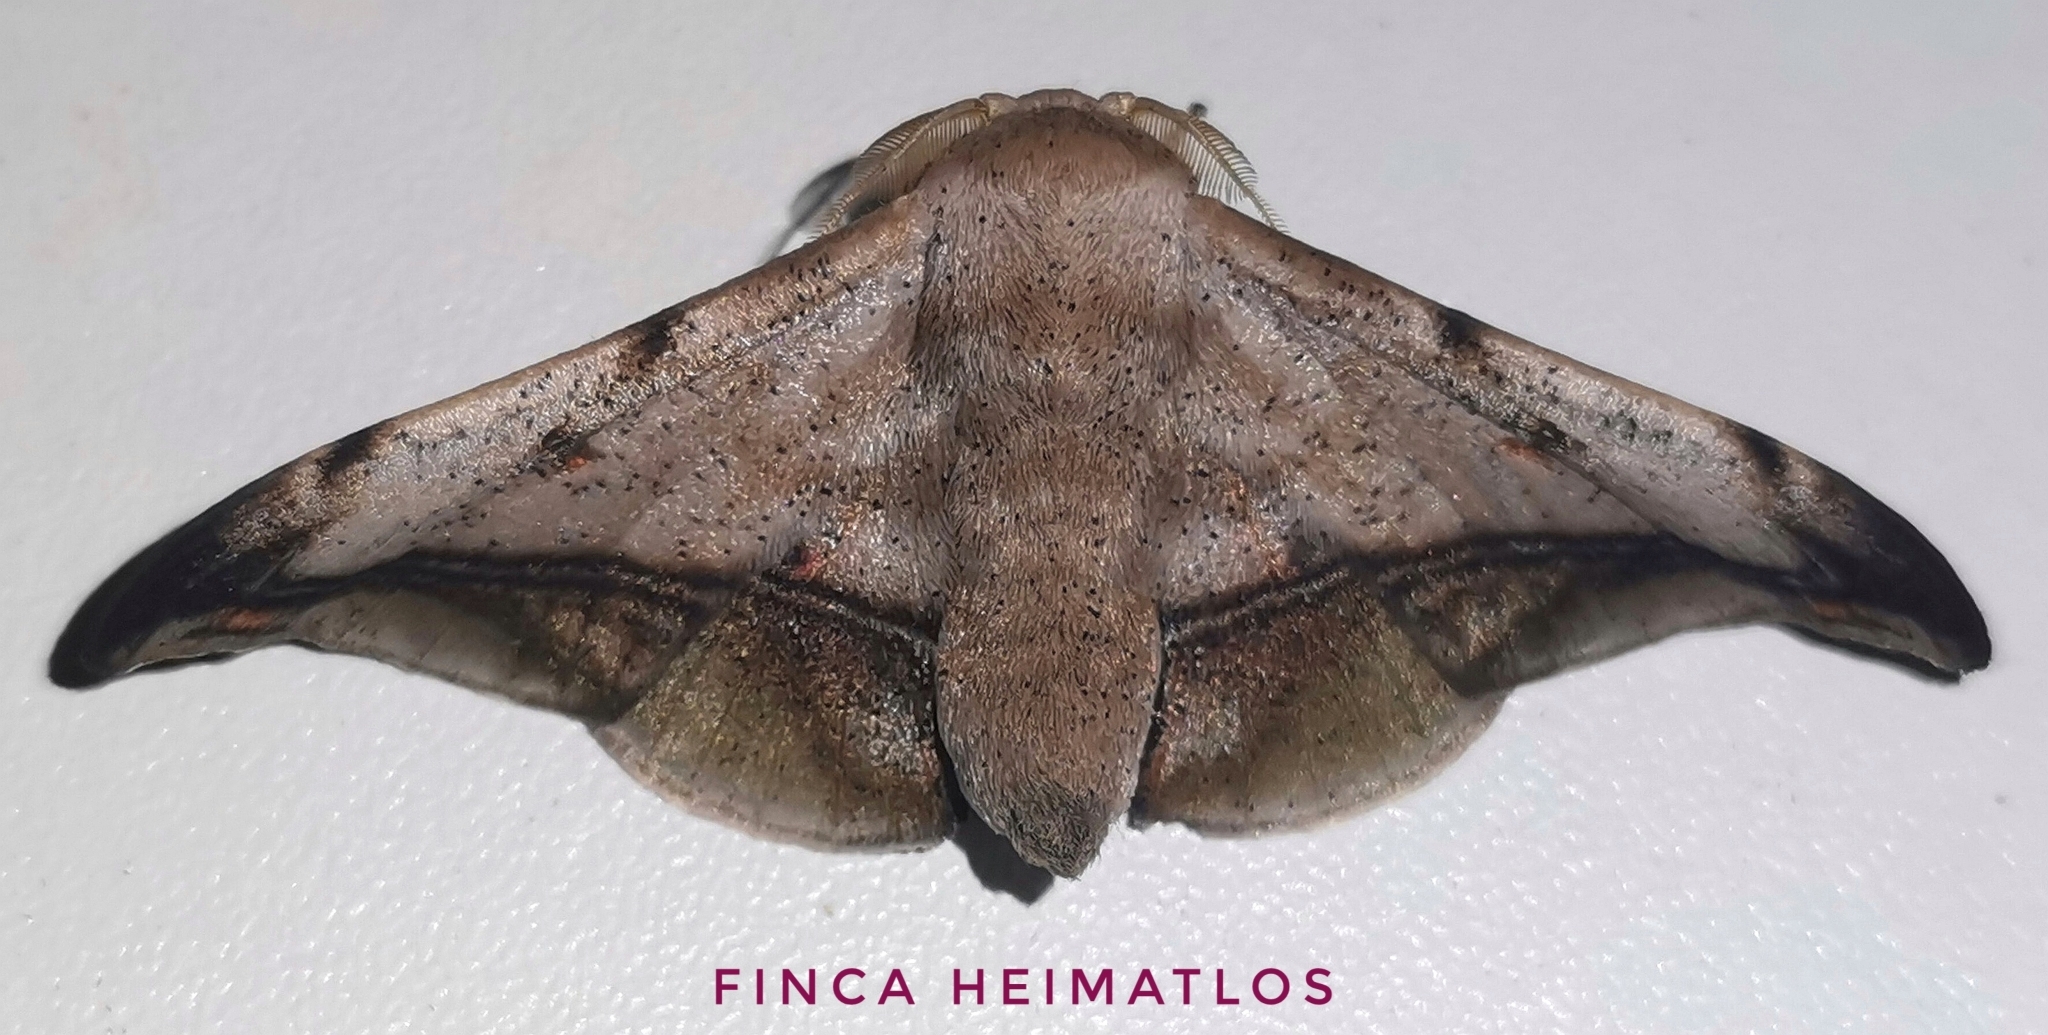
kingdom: Animalia
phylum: Arthropoda
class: Insecta
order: Lepidoptera
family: Mimallonidae
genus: Cicinnus
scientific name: Cicinnus fogia
